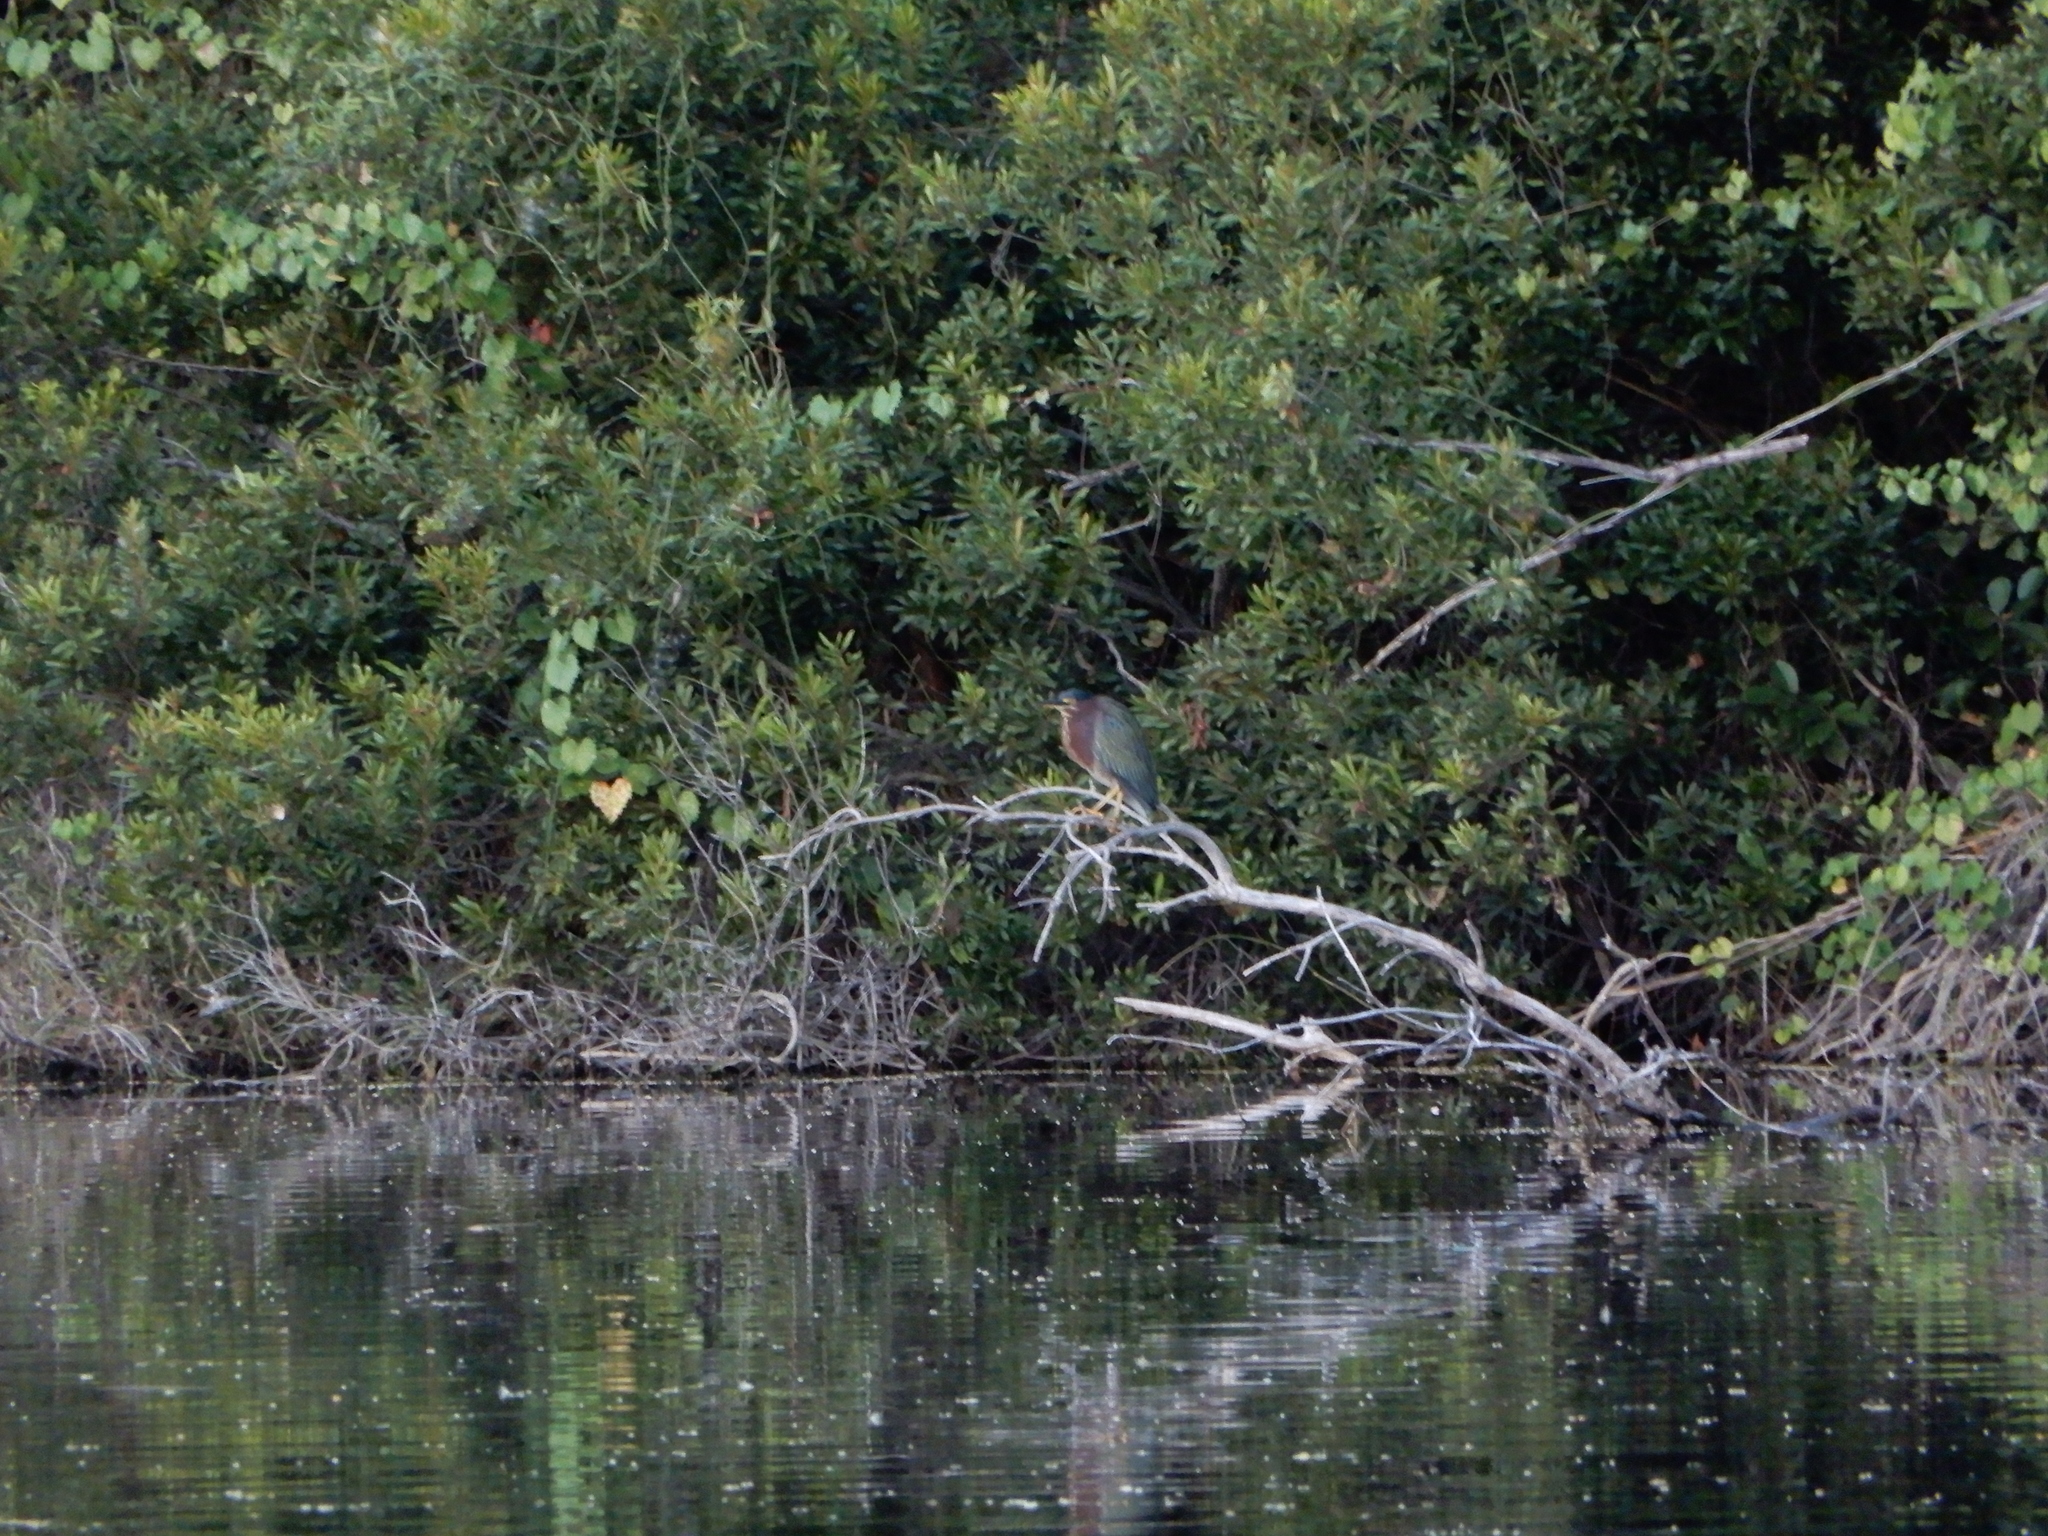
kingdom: Animalia
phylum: Chordata
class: Aves
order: Pelecaniformes
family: Ardeidae
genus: Butorides
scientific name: Butorides virescens
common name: Green heron
